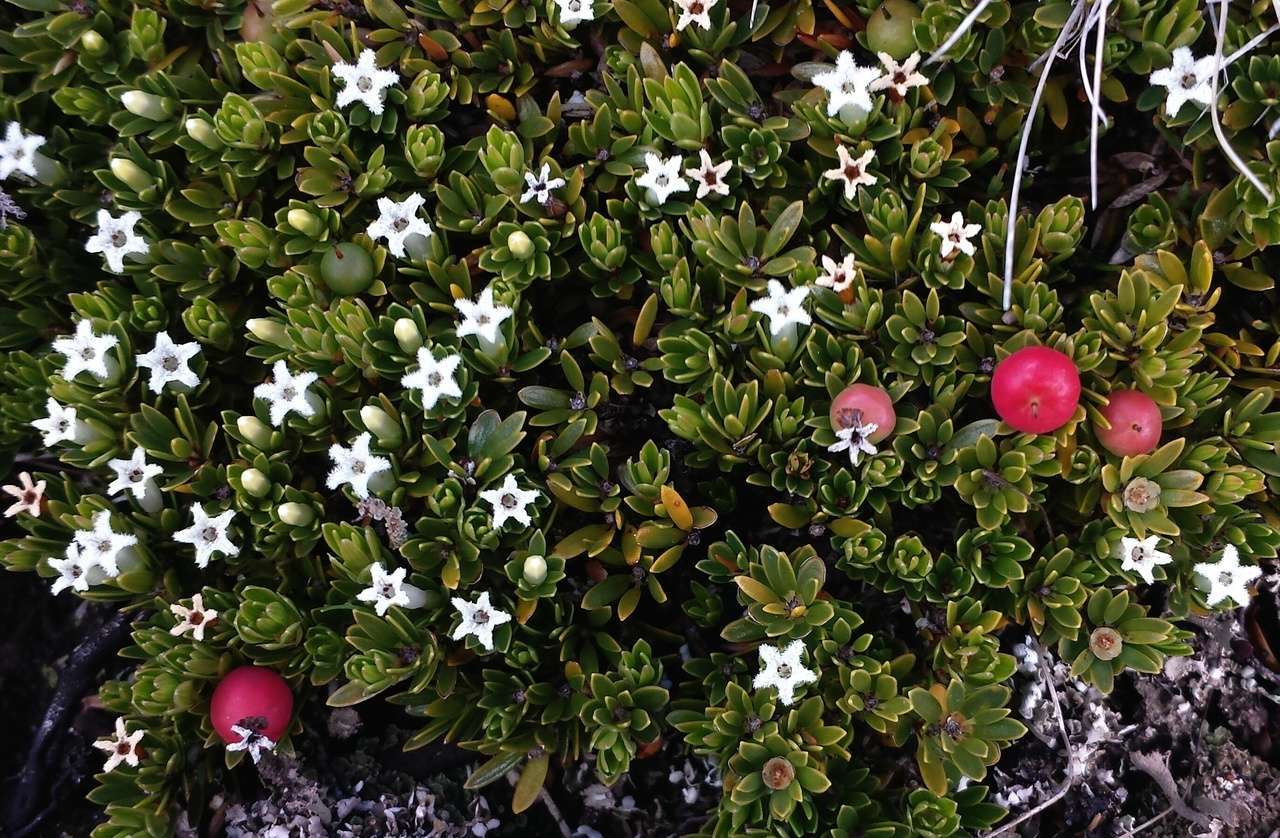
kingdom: Plantae
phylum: Tracheophyta
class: Magnoliopsida
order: Ericales
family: Ericaceae
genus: Pentachondra
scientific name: Pentachondra pumila
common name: Carpet-heath
